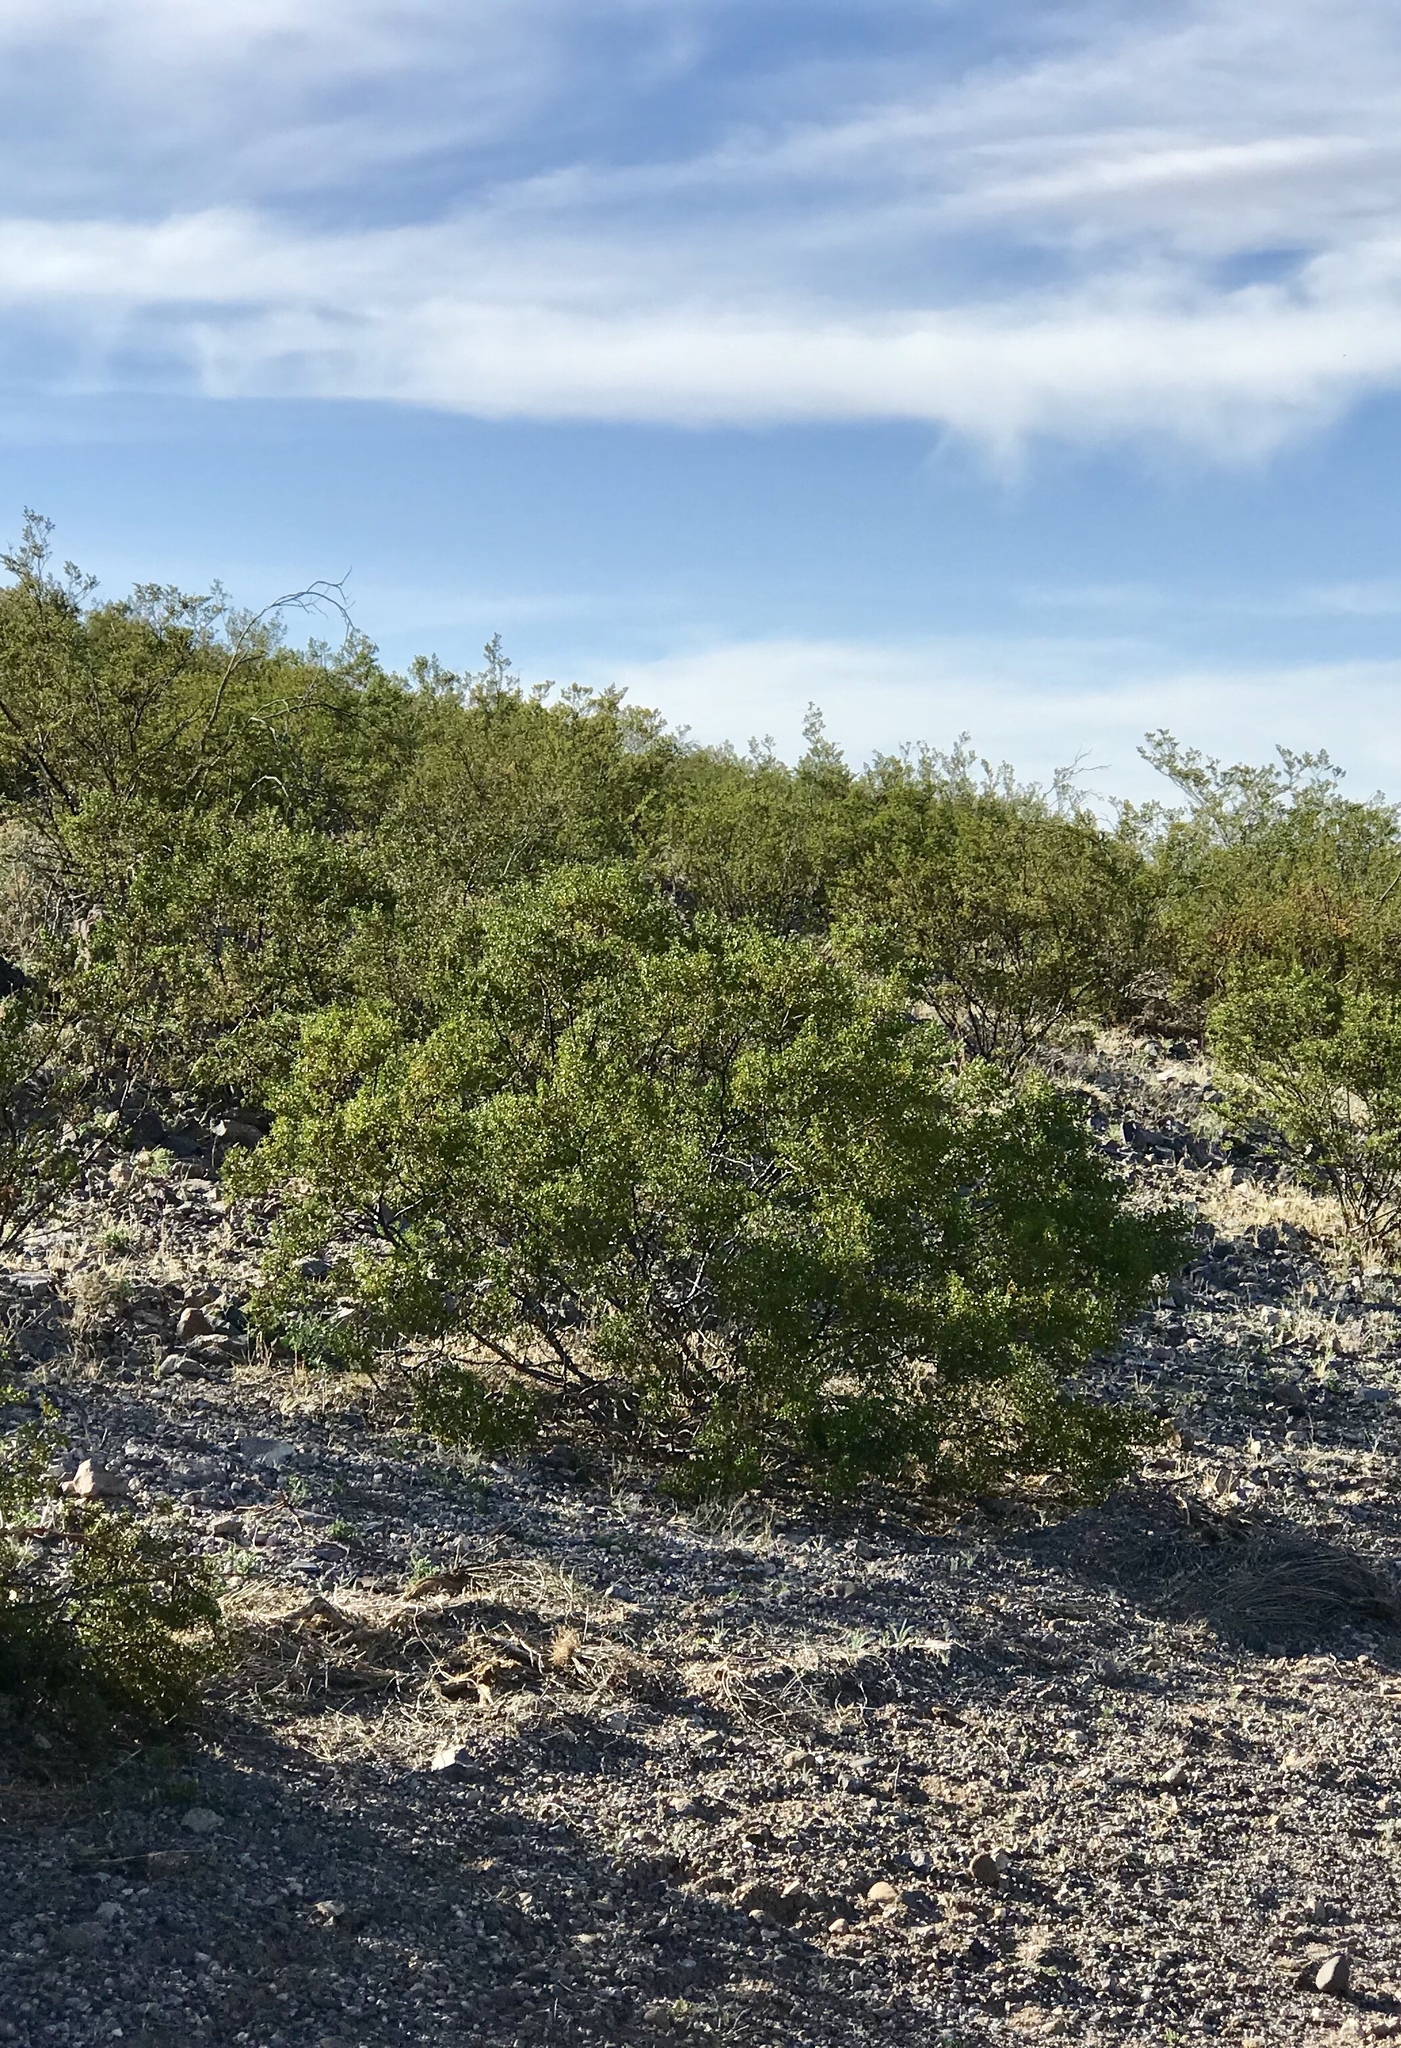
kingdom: Plantae
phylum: Tracheophyta
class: Magnoliopsida
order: Zygophyllales
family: Zygophyllaceae
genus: Larrea
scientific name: Larrea tridentata
